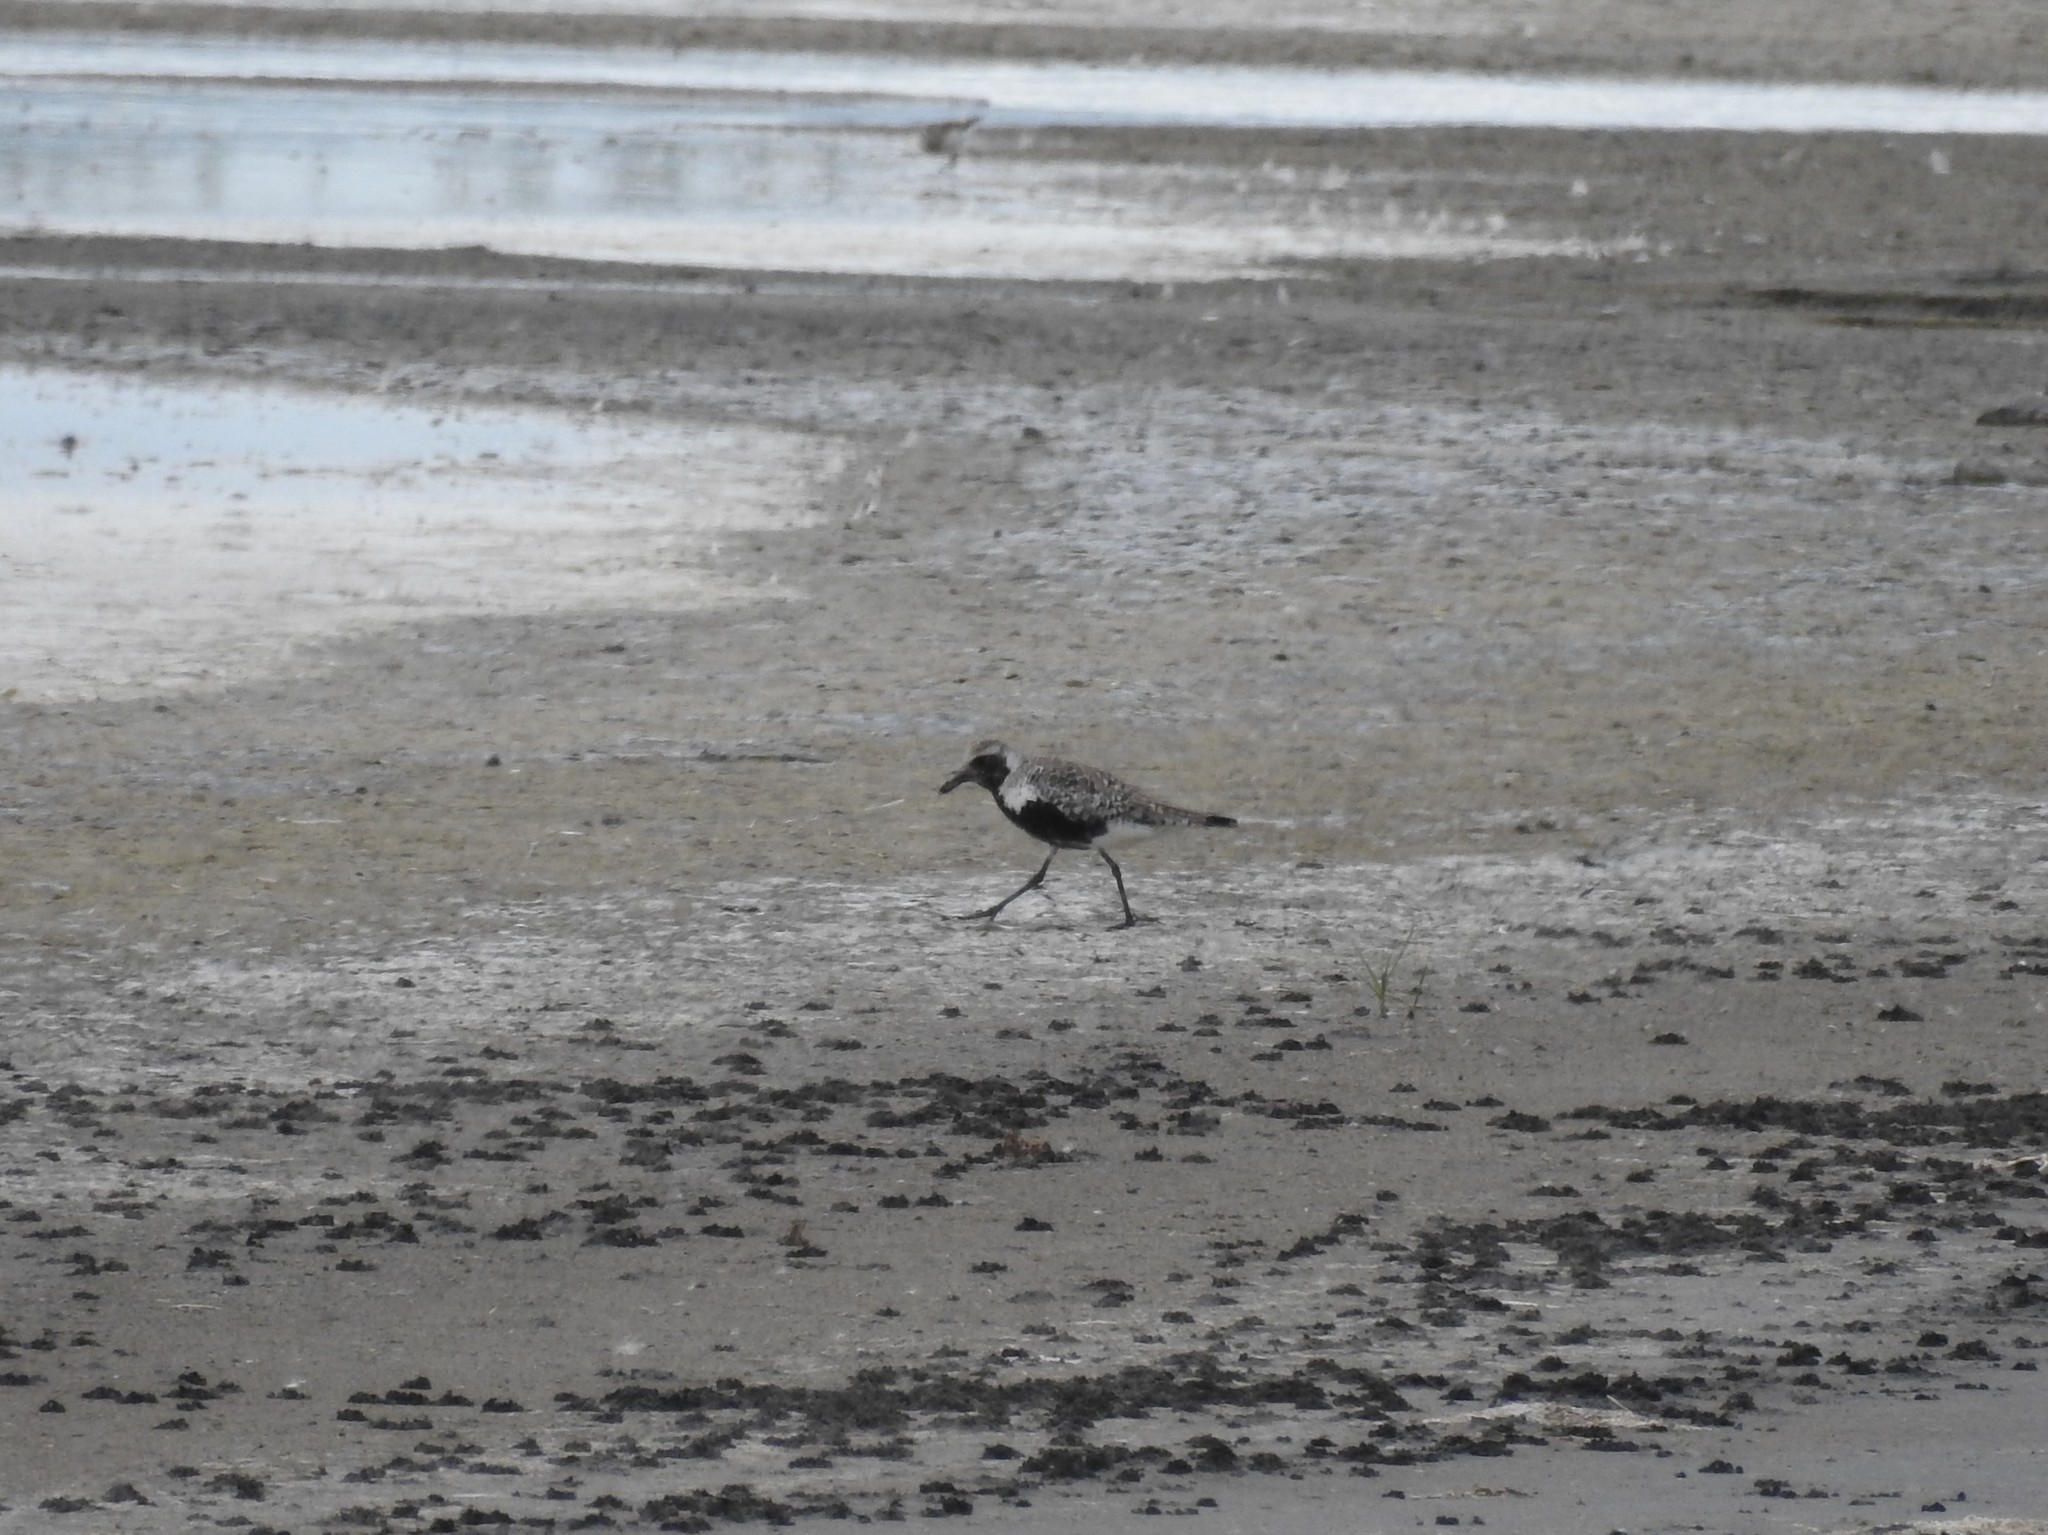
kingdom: Animalia
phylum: Chordata
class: Aves
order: Charadriiformes
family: Charadriidae
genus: Pluvialis
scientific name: Pluvialis squatarola
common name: Grey plover
